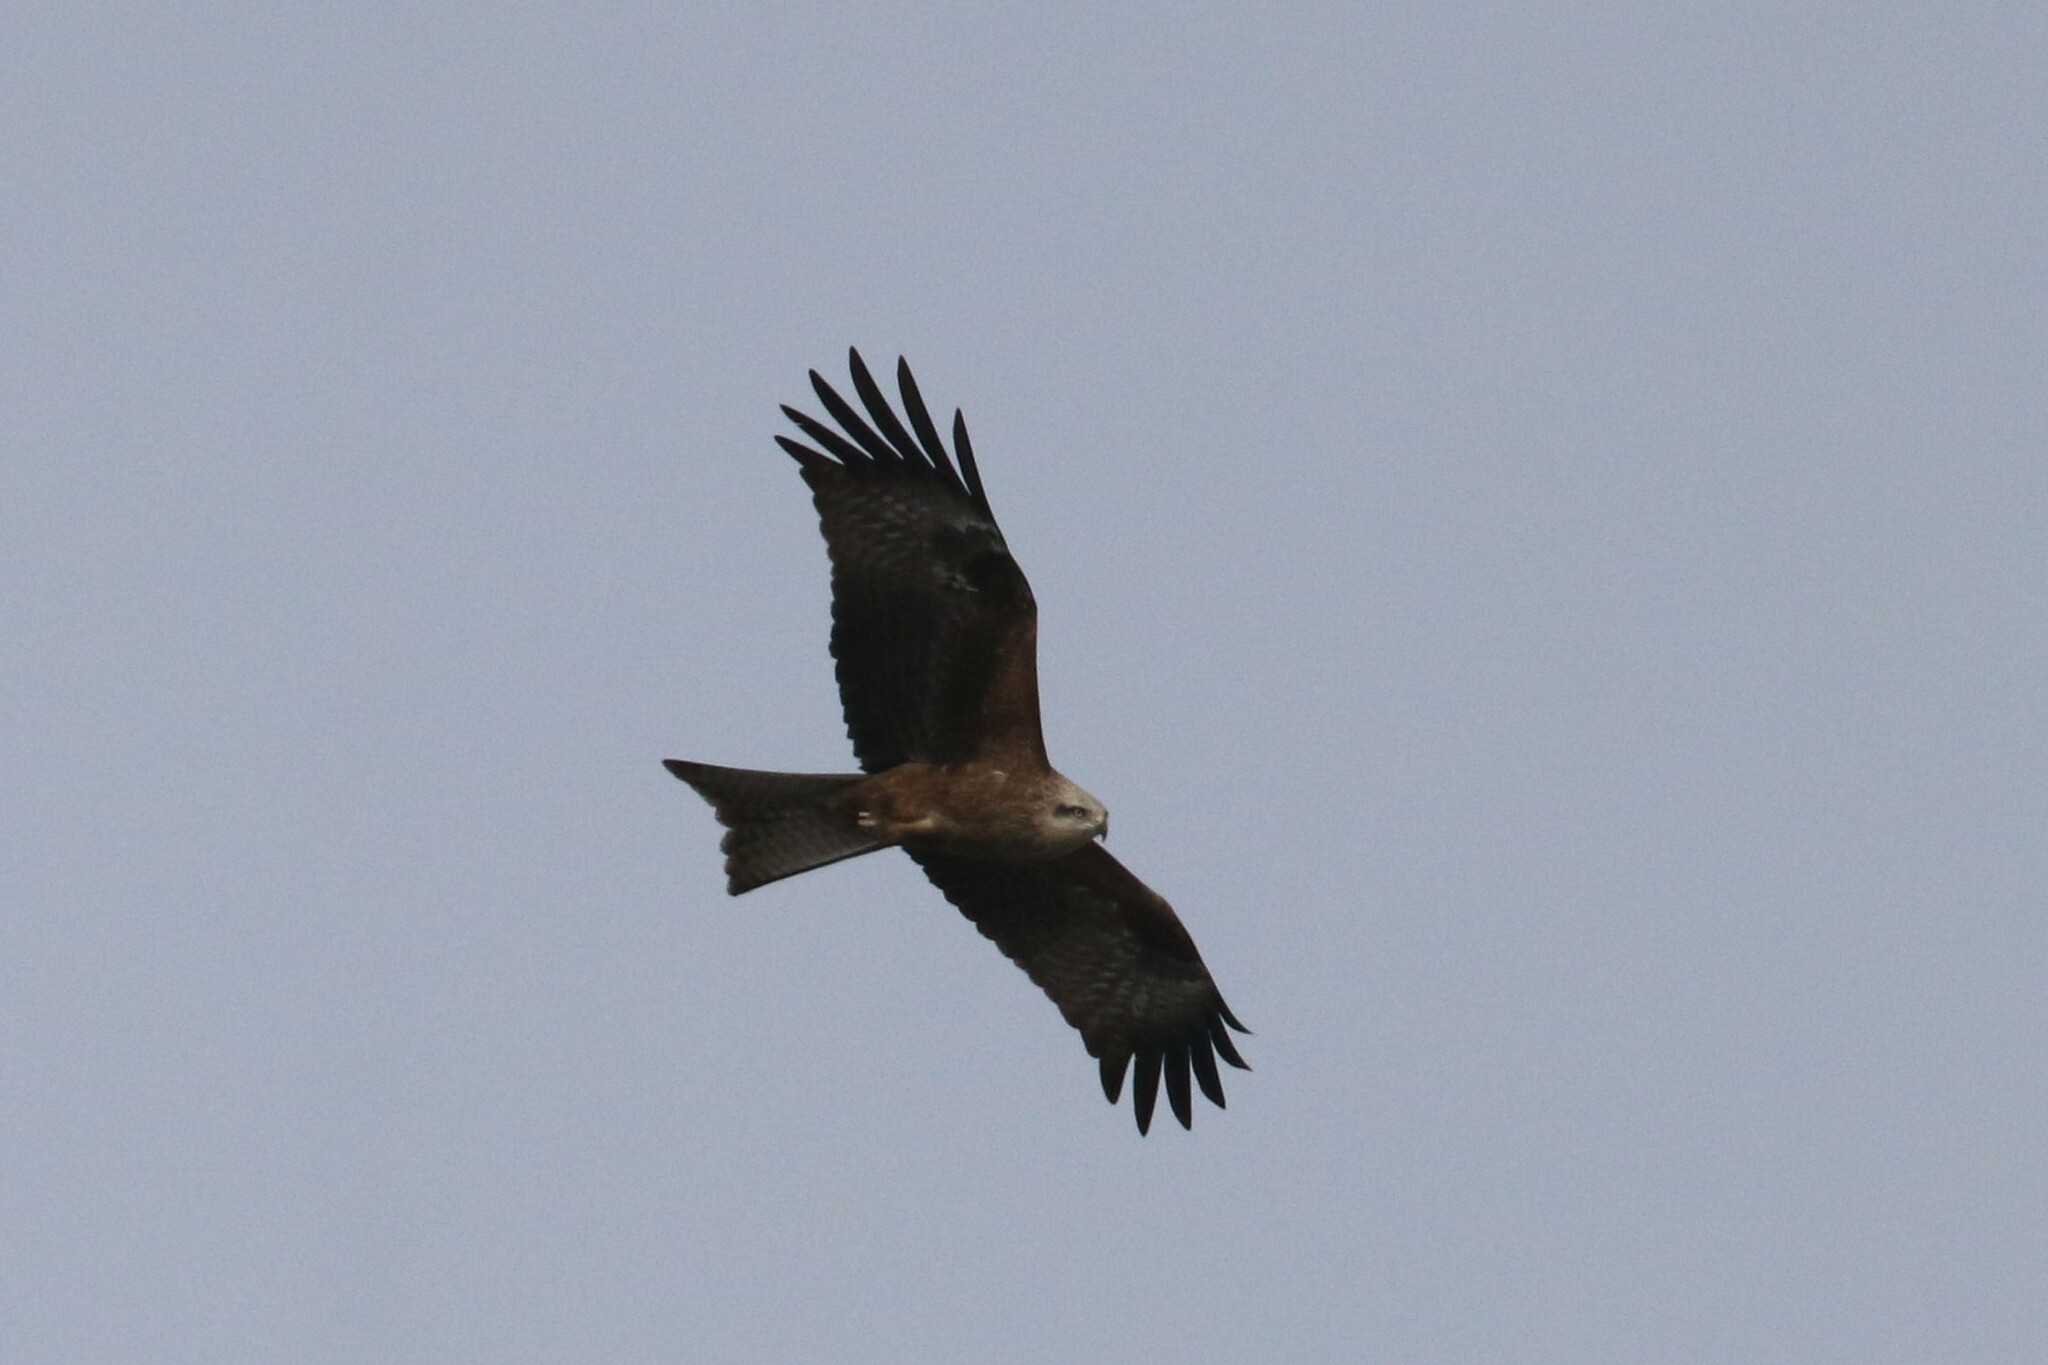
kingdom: Animalia
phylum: Chordata
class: Aves
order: Accipitriformes
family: Accipitridae
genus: Milvus
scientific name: Milvus migrans
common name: Black kite
